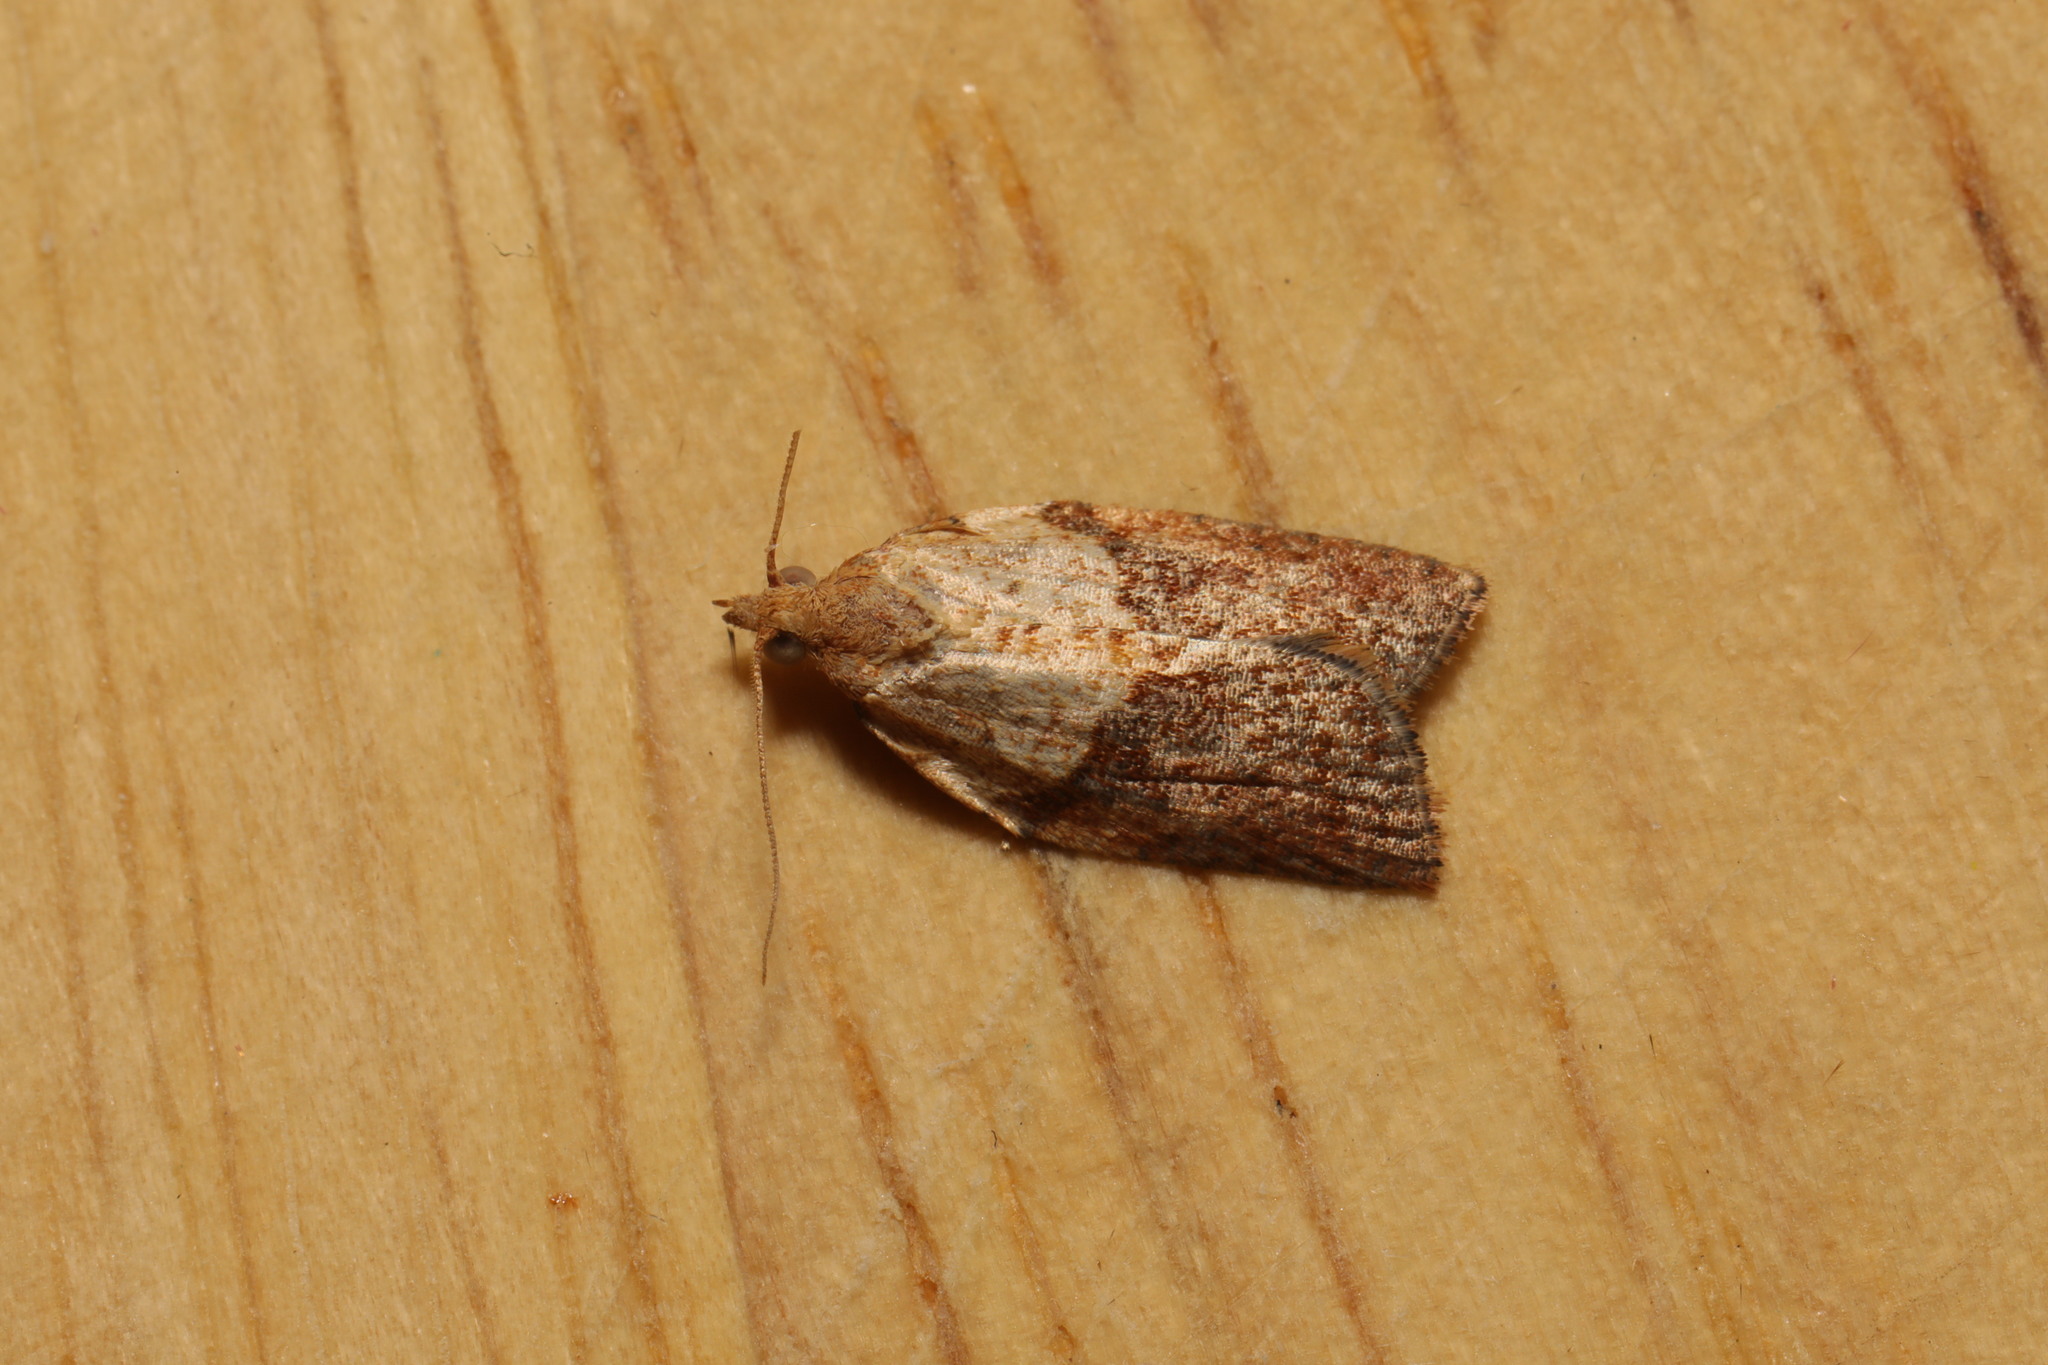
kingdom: Animalia
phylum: Arthropoda
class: Insecta
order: Lepidoptera
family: Tortricidae
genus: Epiphyas
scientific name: Epiphyas postvittana
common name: Light brown apple moth
